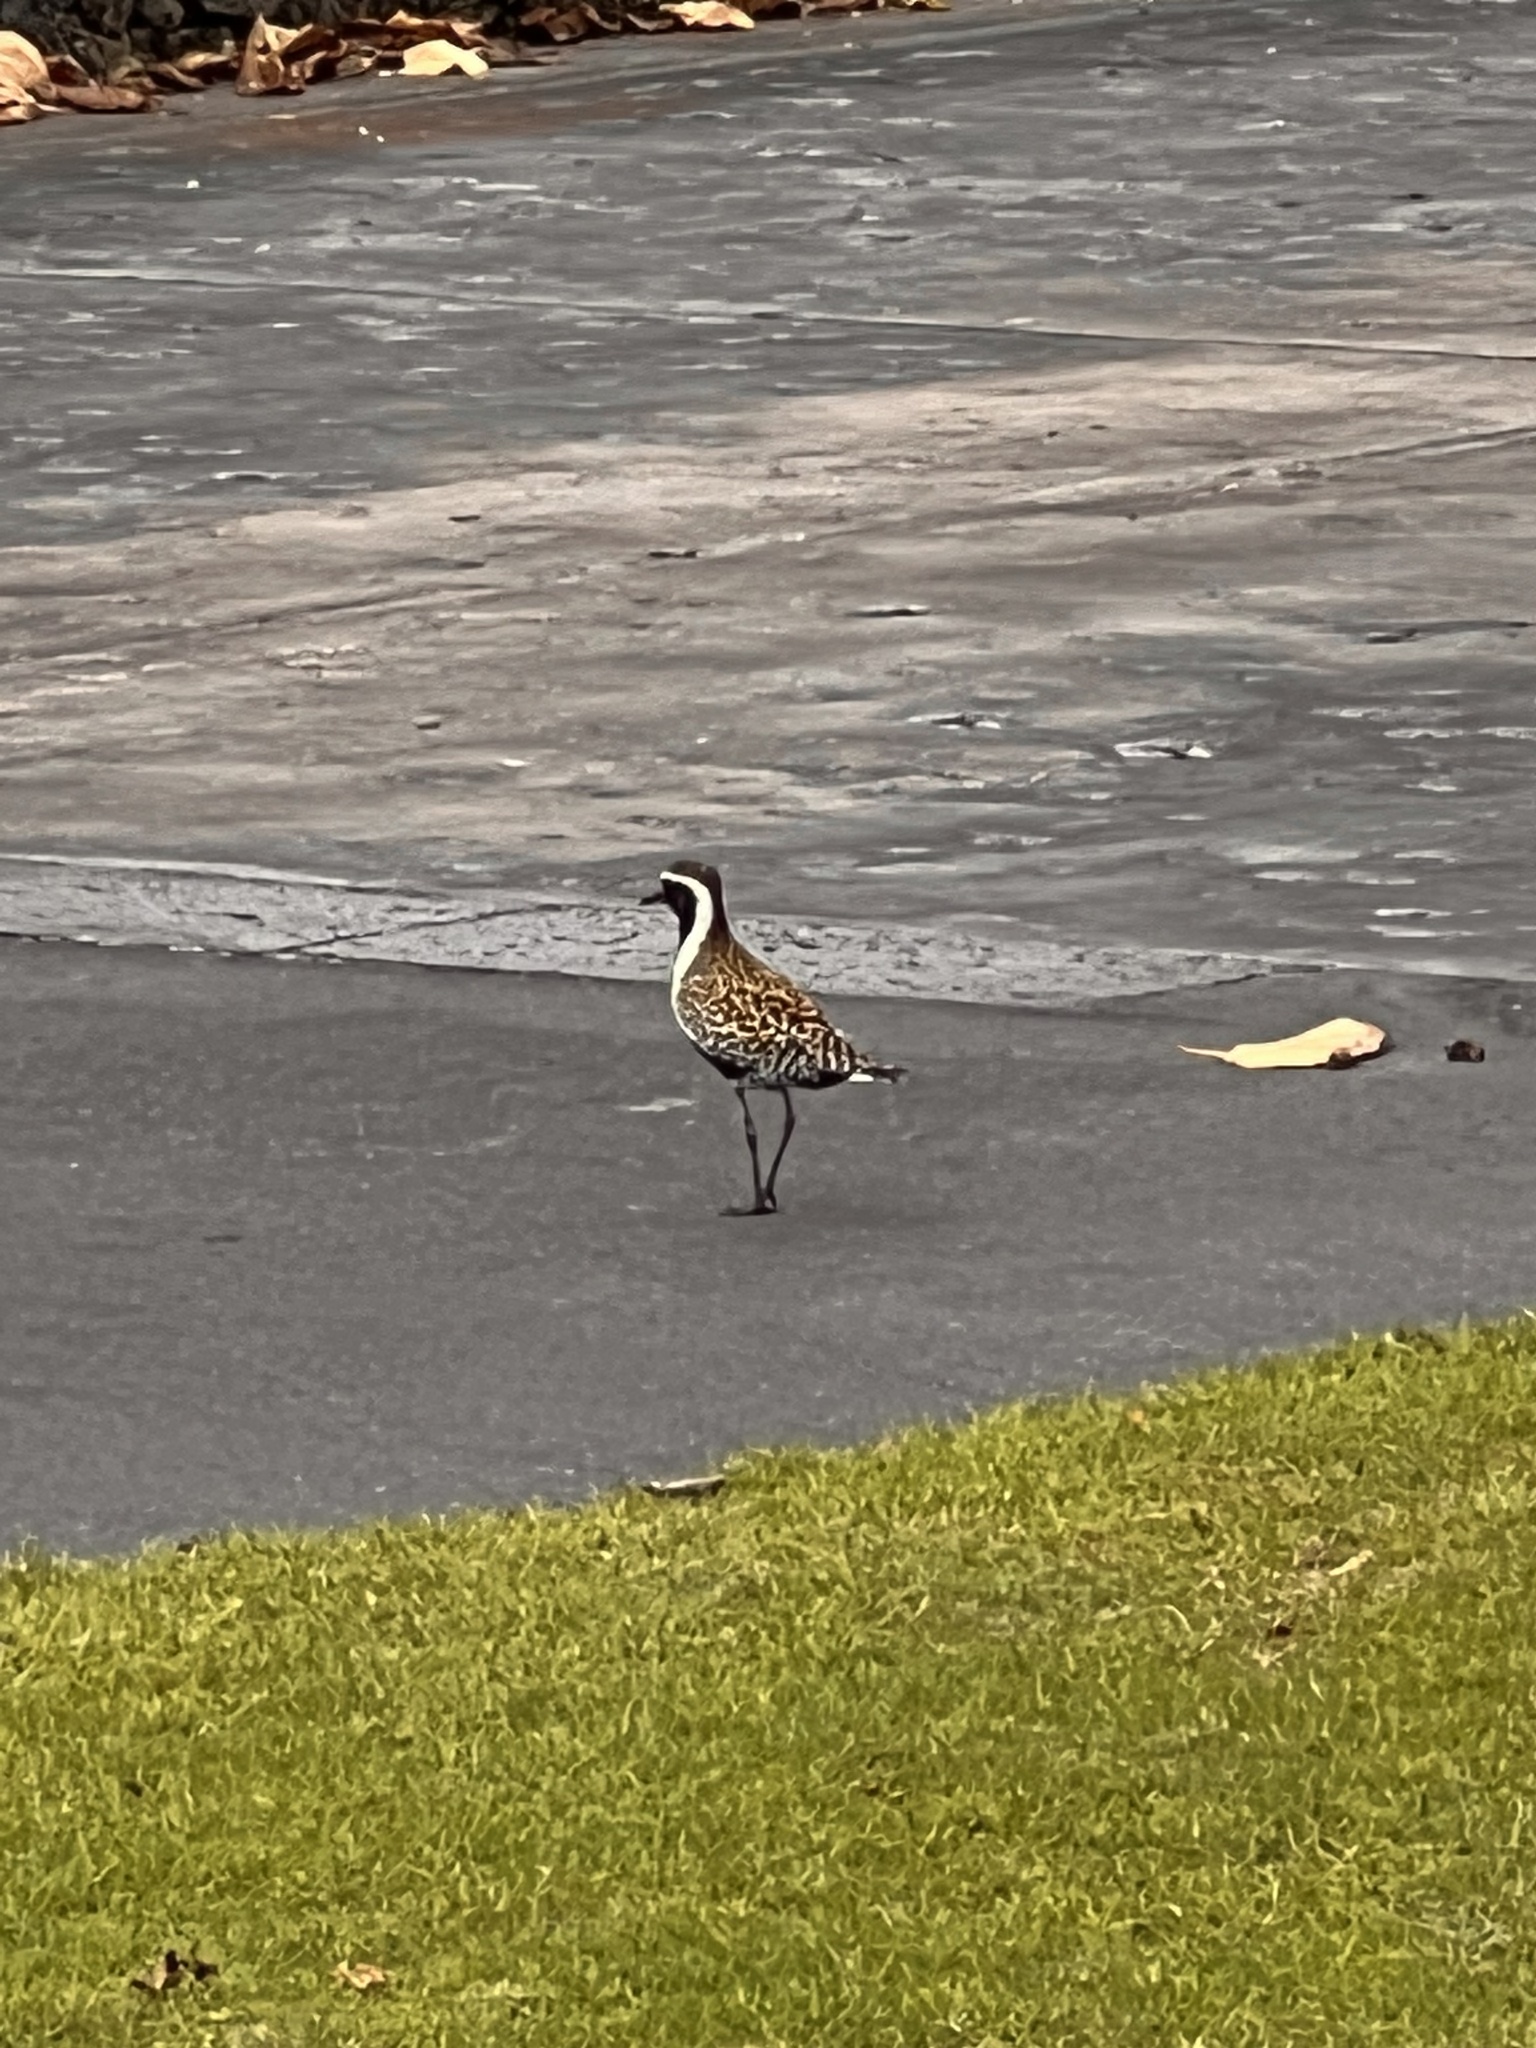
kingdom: Animalia
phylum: Chordata
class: Aves
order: Charadriiformes
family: Charadriidae
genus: Pluvialis
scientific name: Pluvialis fulva
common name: Pacific golden plover
